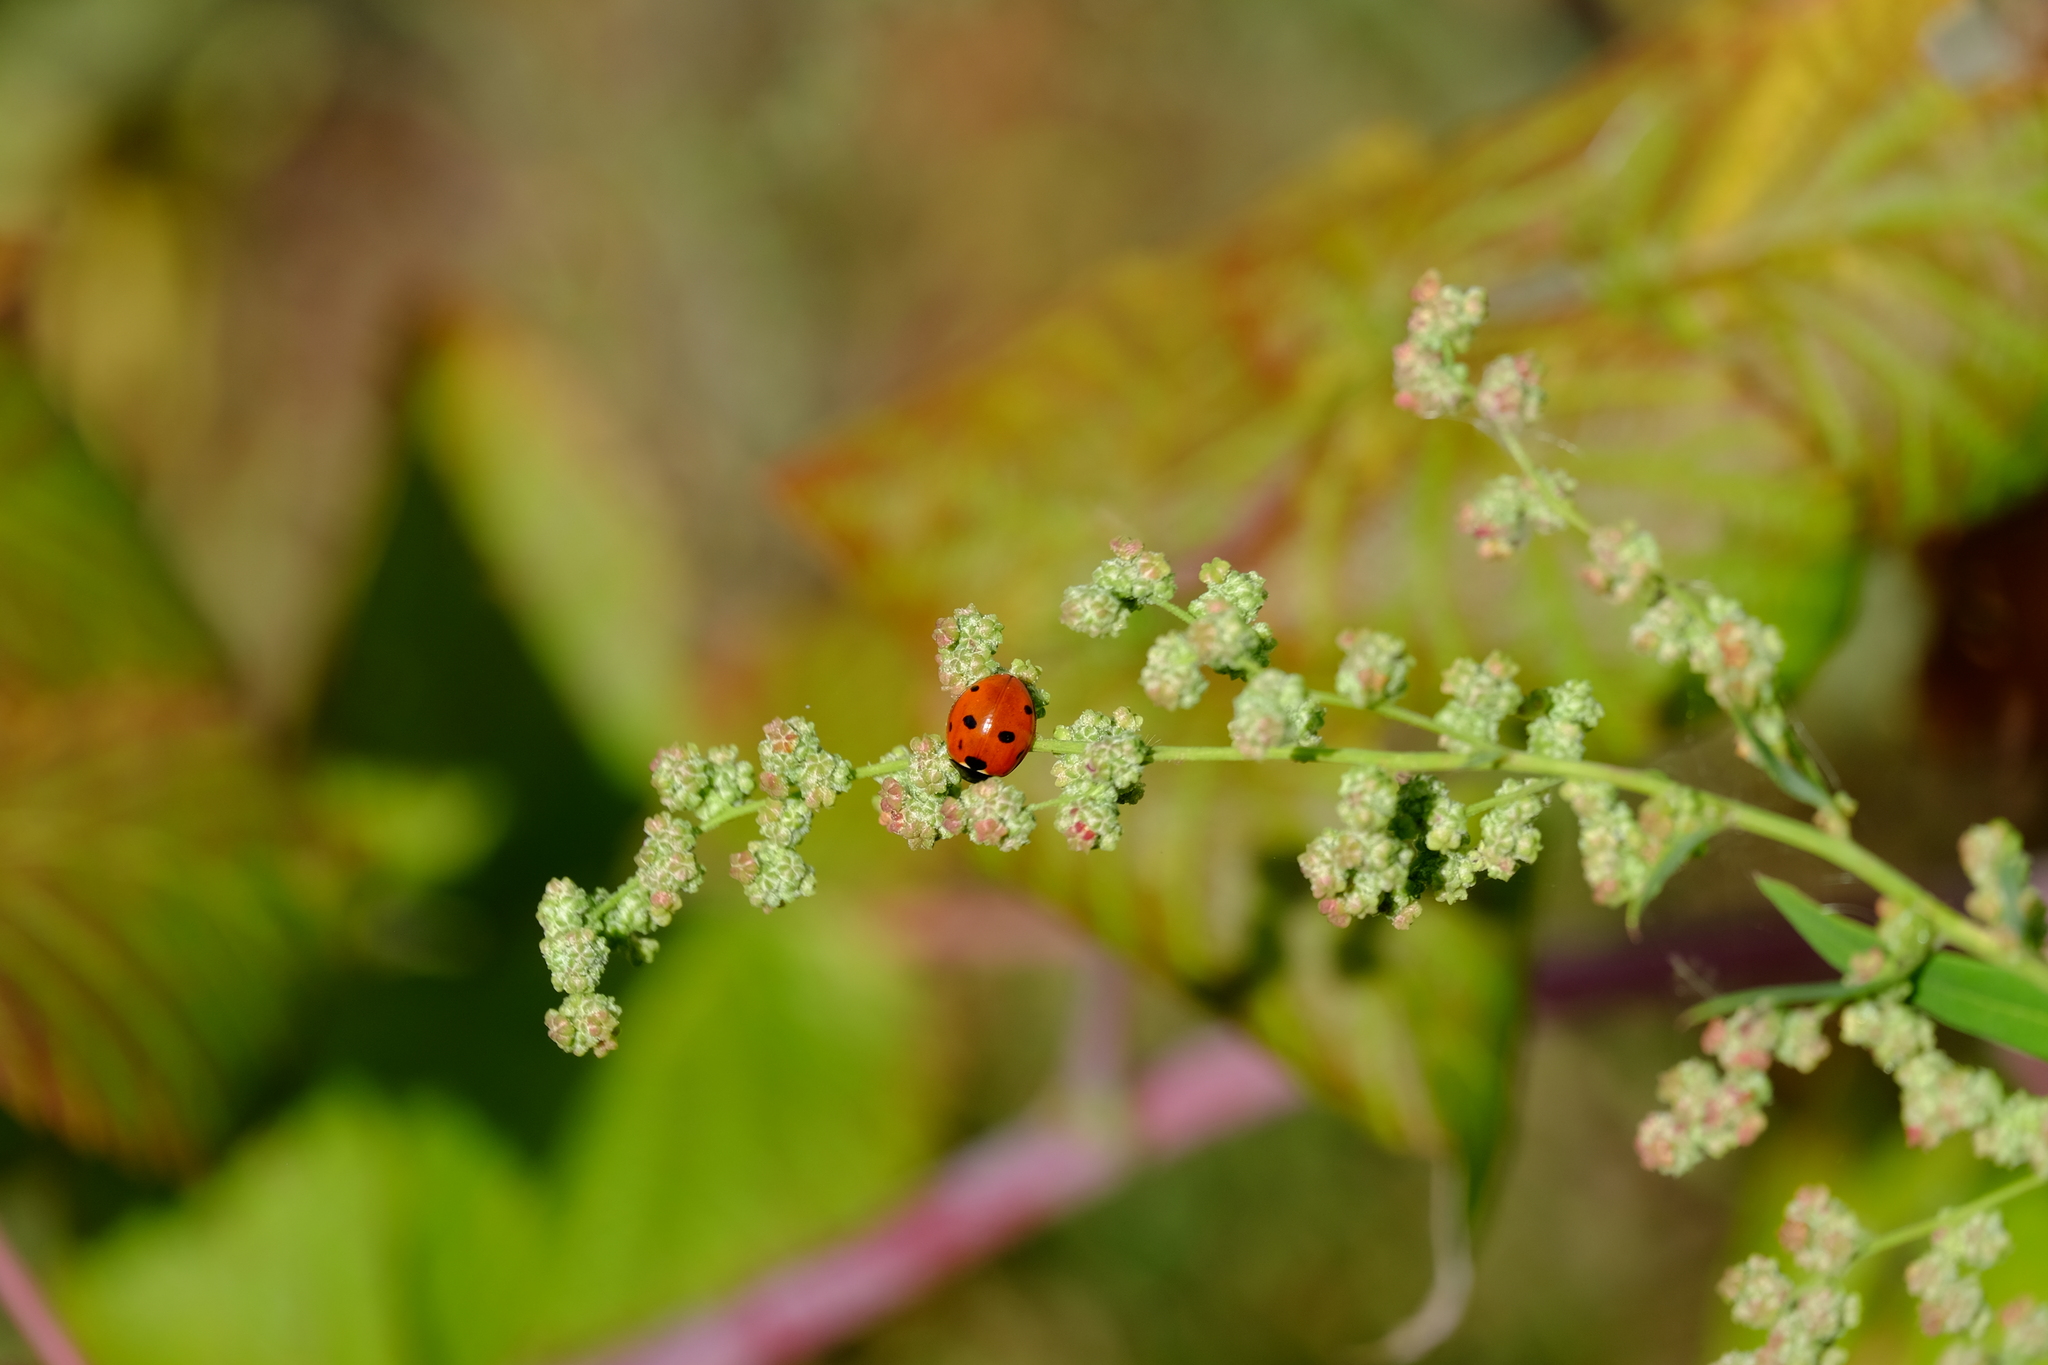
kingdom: Animalia
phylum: Arthropoda
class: Insecta
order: Coleoptera
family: Coccinellidae
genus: Coccinella
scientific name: Coccinella septempunctata
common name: Sevenspotted lady beetle
